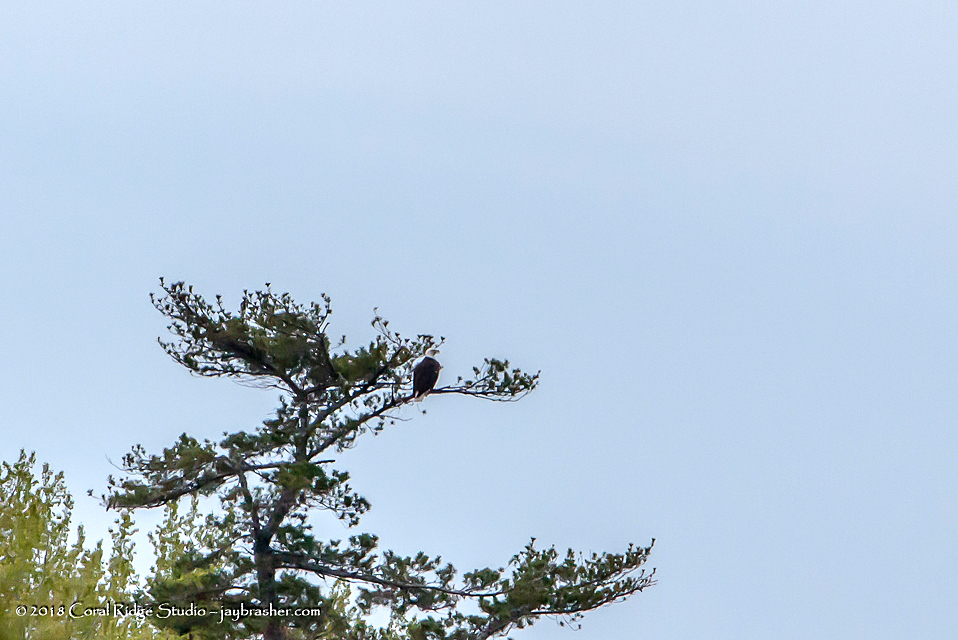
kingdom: Animalia
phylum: Chordata
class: Aves
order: Accipitriformes
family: Accipitridae
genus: Haliaeetus
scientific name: Haliaeetus leucocephalus
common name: Bald eagle
